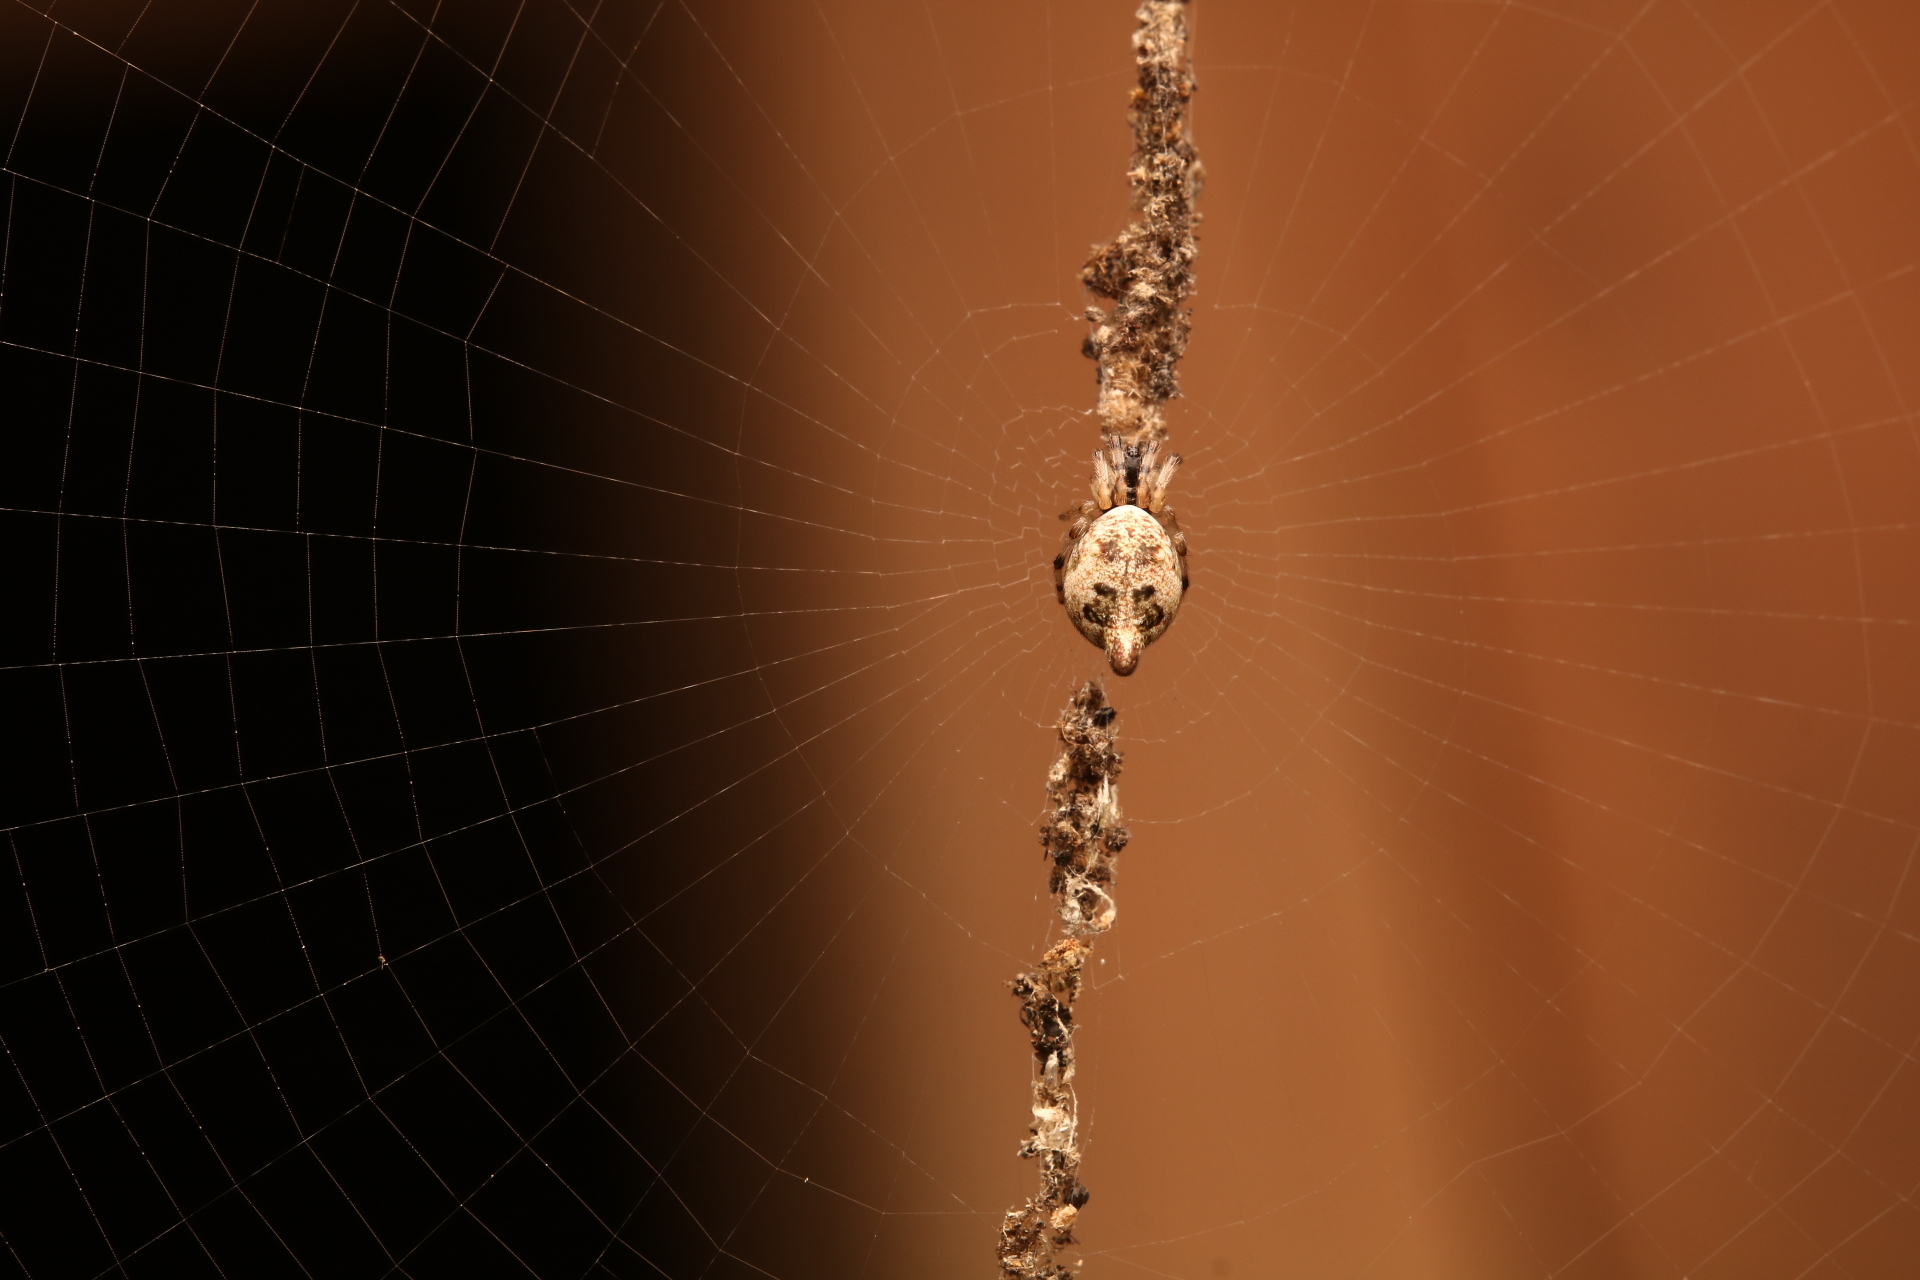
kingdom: Animalia
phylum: Arthropoda
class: Arachnida
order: Araneae
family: Araneidae
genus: Cyclosa
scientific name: Cyclosa turbinata
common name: Orb weavers
